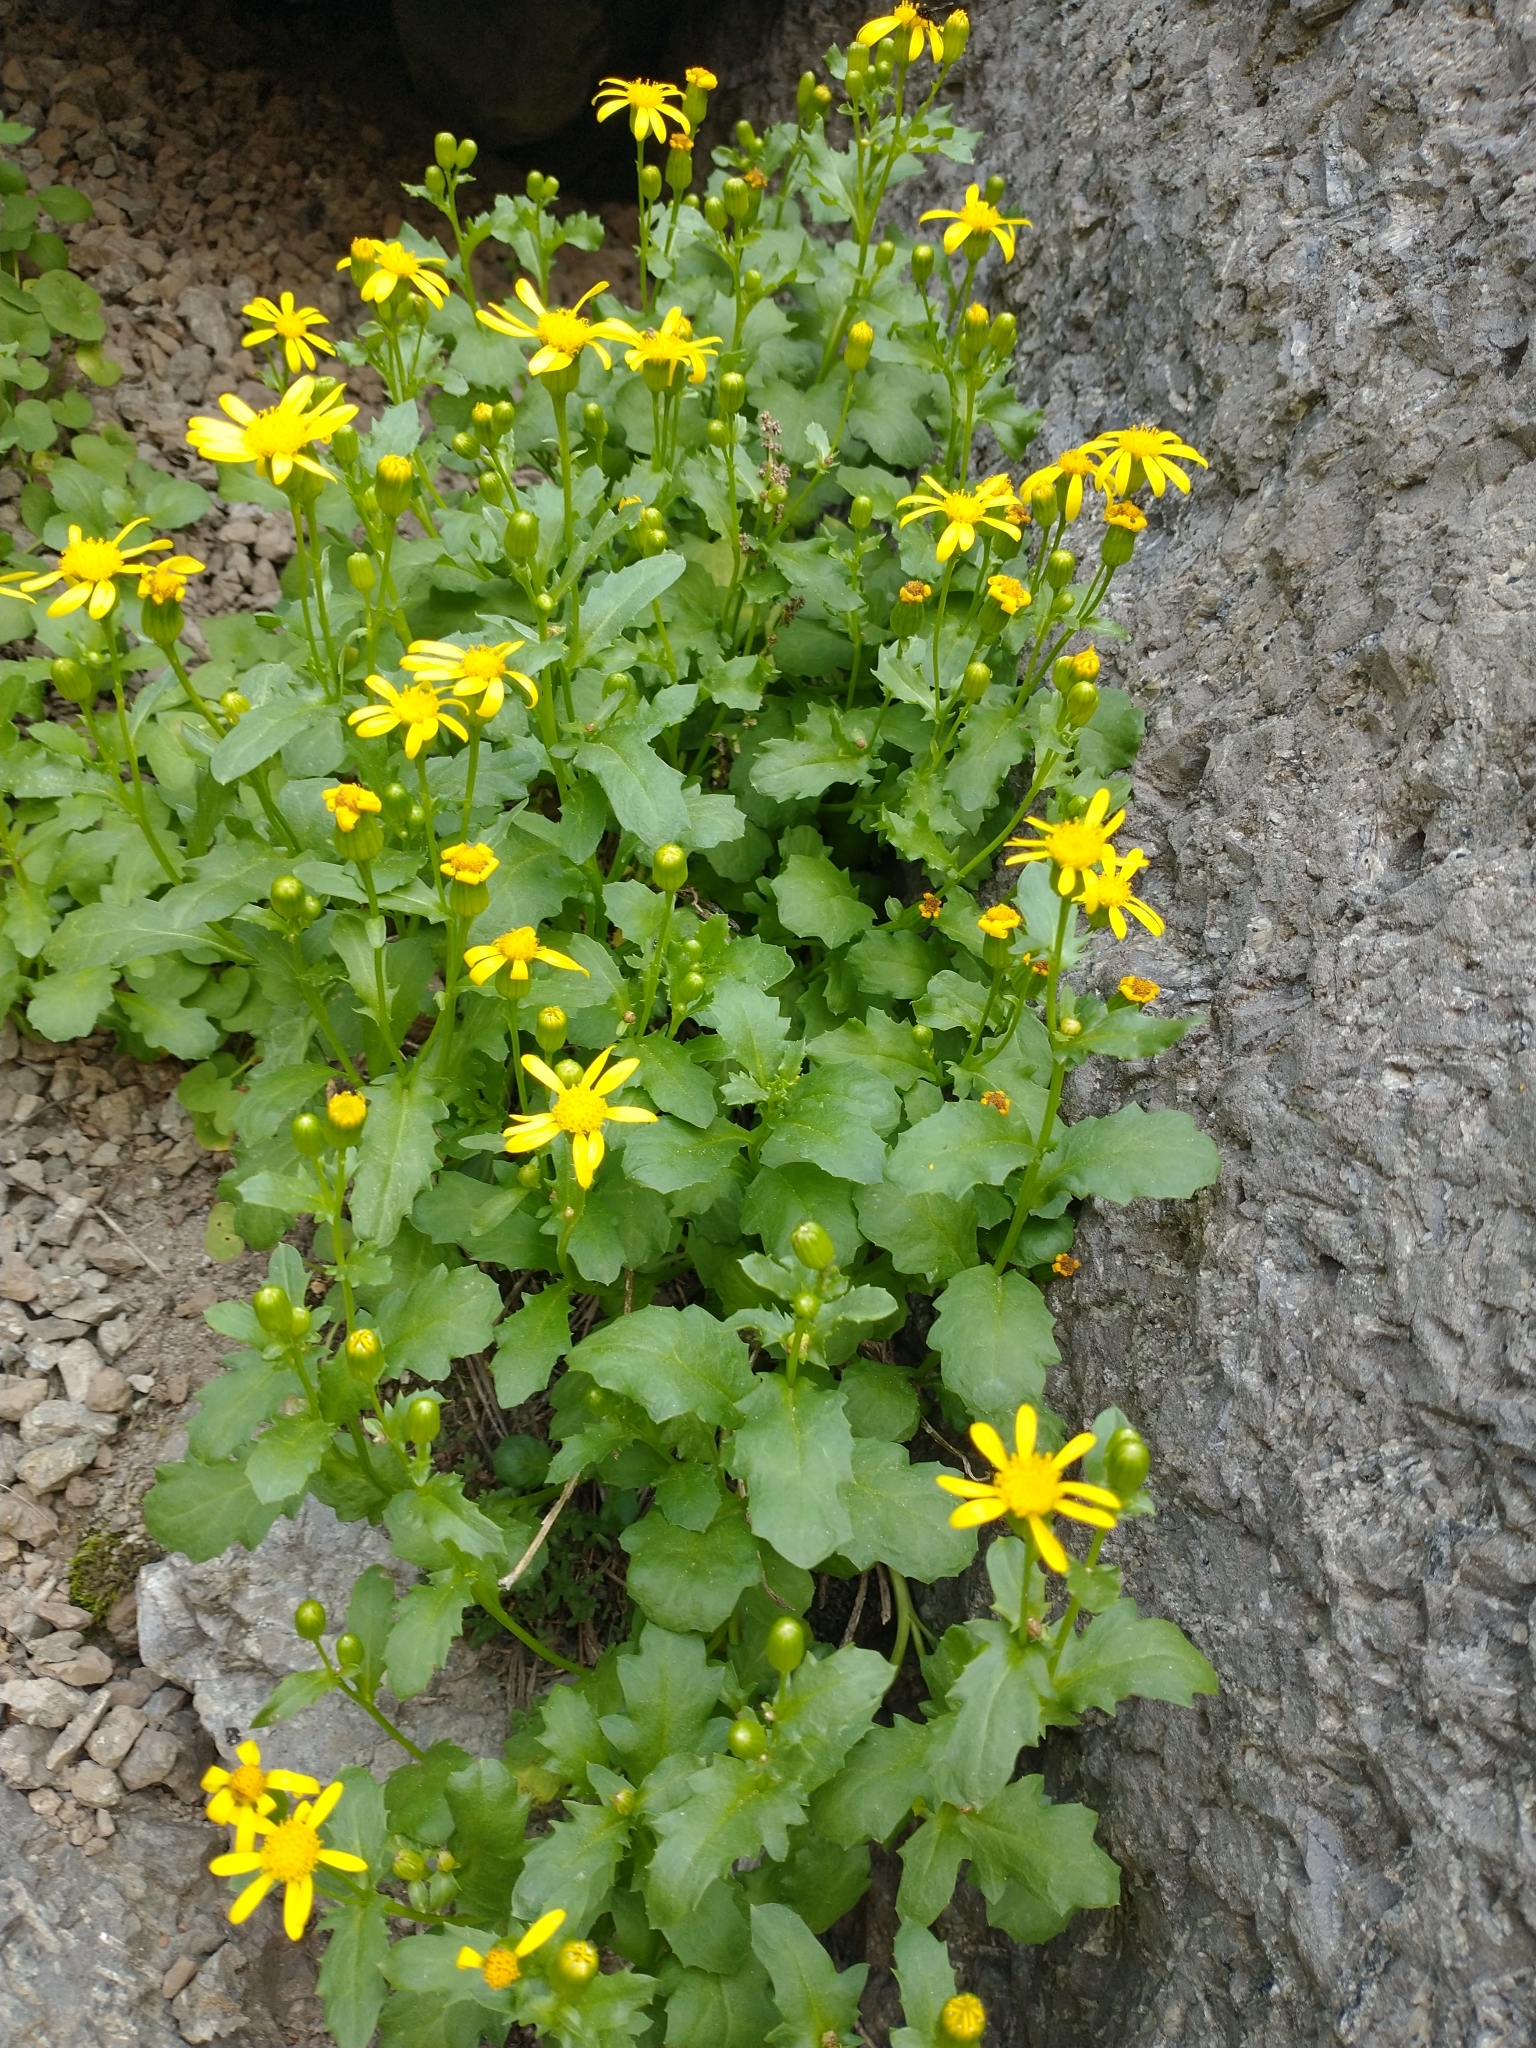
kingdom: Plantae
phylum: Tracheophyta
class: Magnoliopsida
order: Asterales
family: Asteraceae
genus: Senecio
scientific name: Senecio fremontii
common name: Fremont's groundsel
